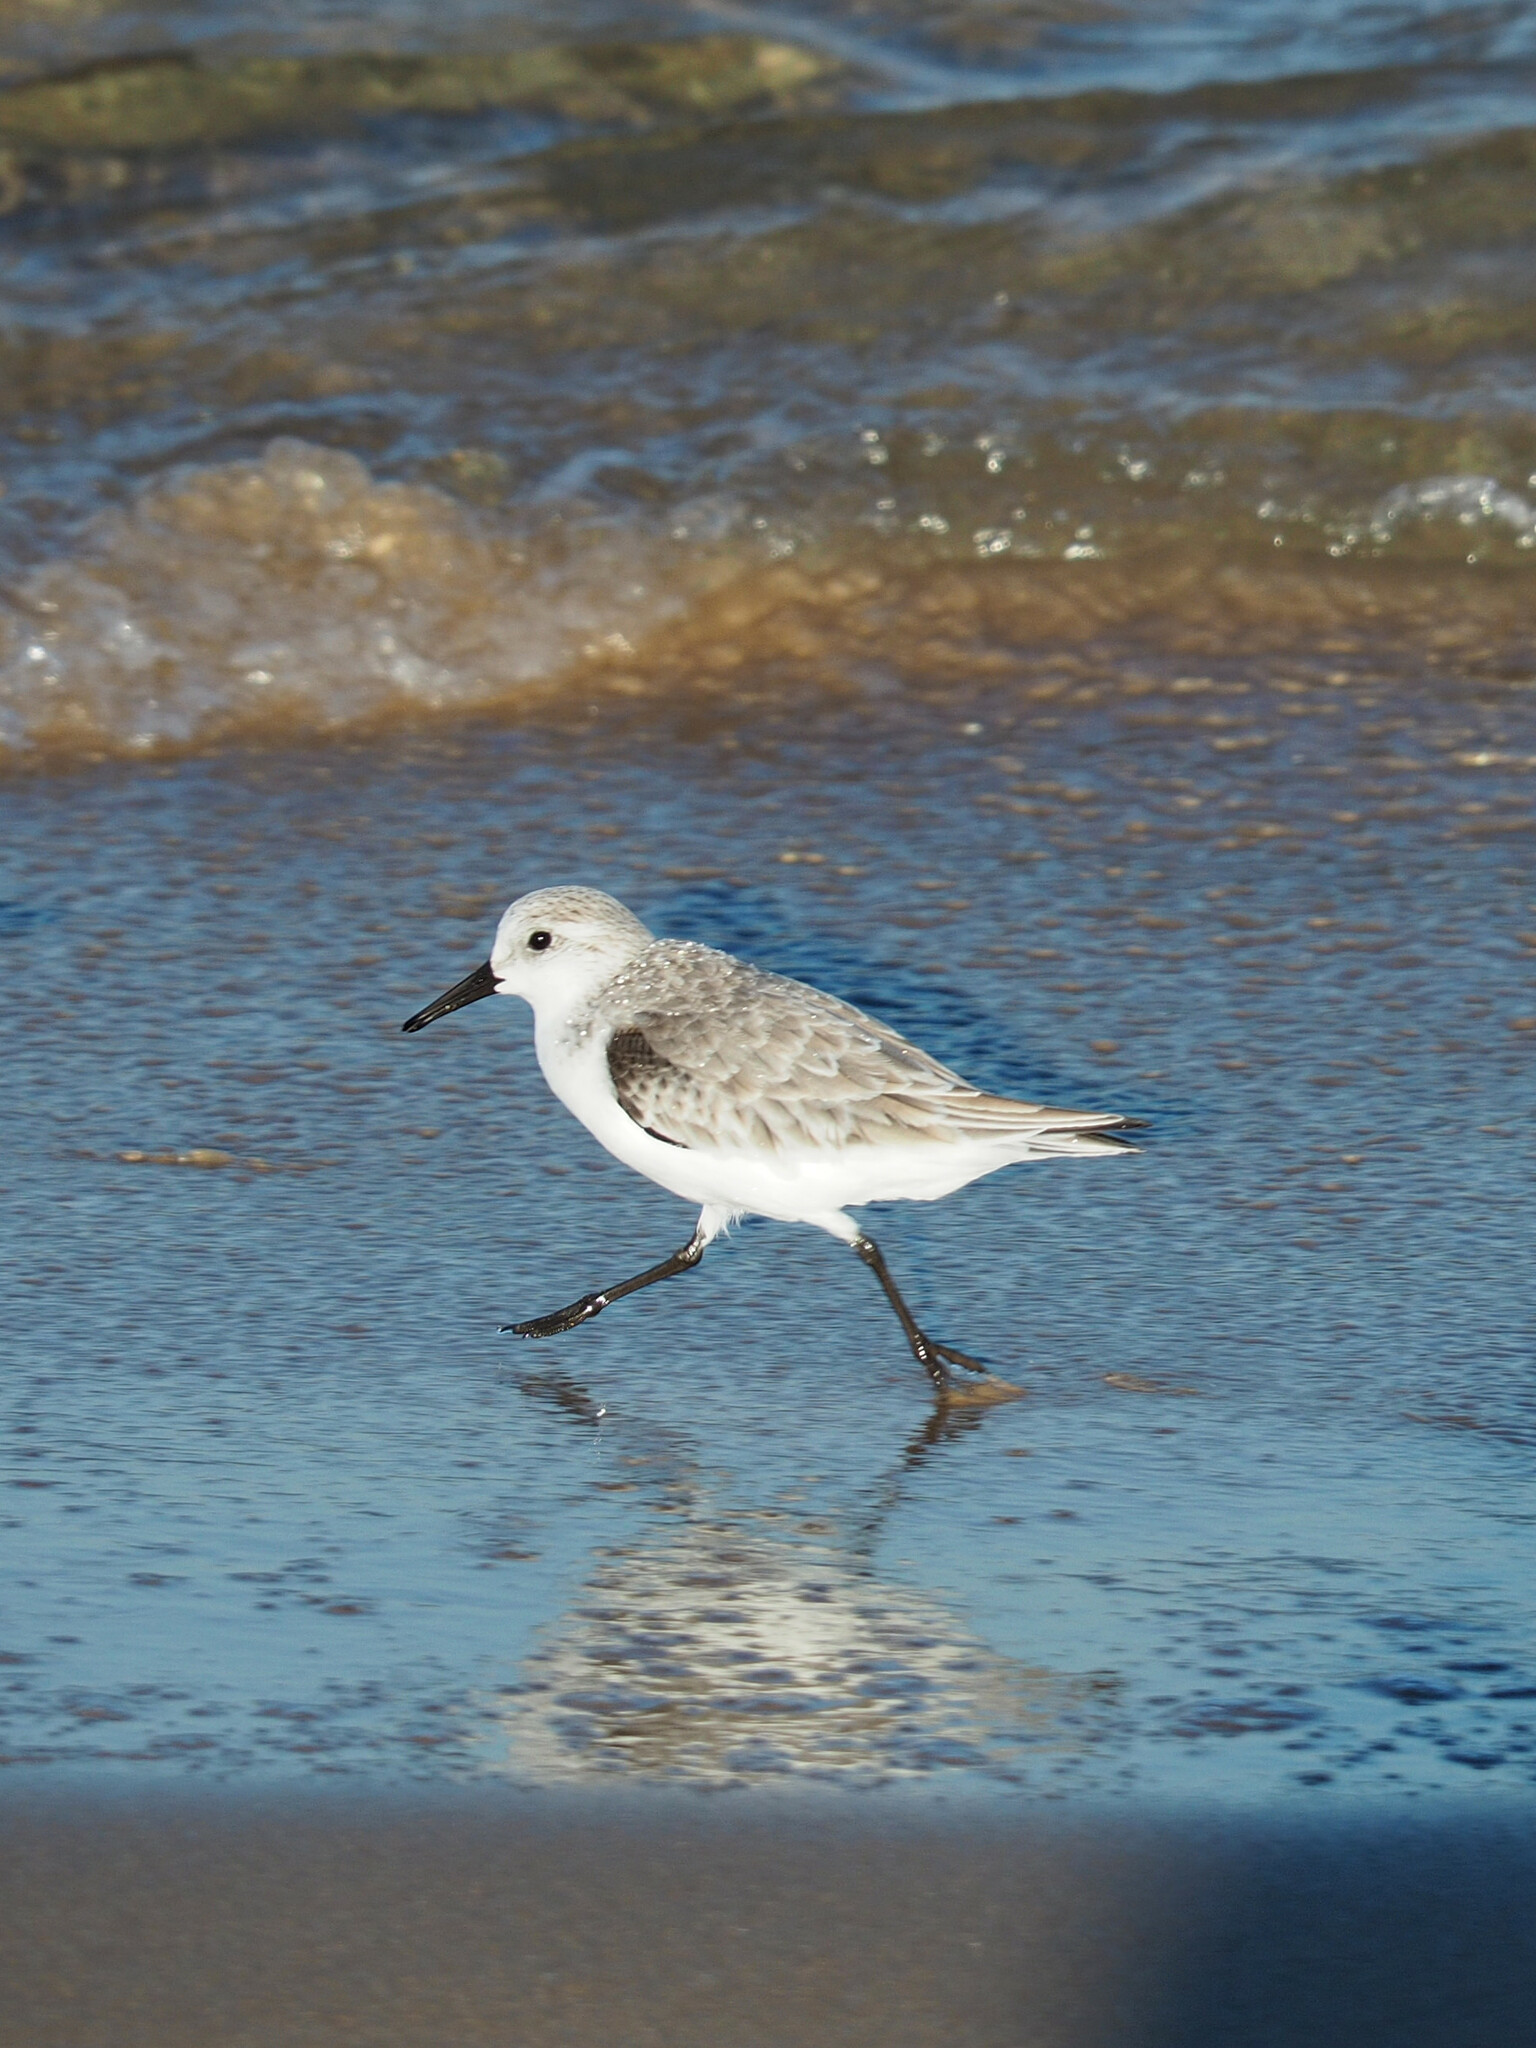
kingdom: Animalia
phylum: Chordata
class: Aves
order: Charadriiformes
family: Scolopacidae
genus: Calidris
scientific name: Calidris alba
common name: Sanderling
